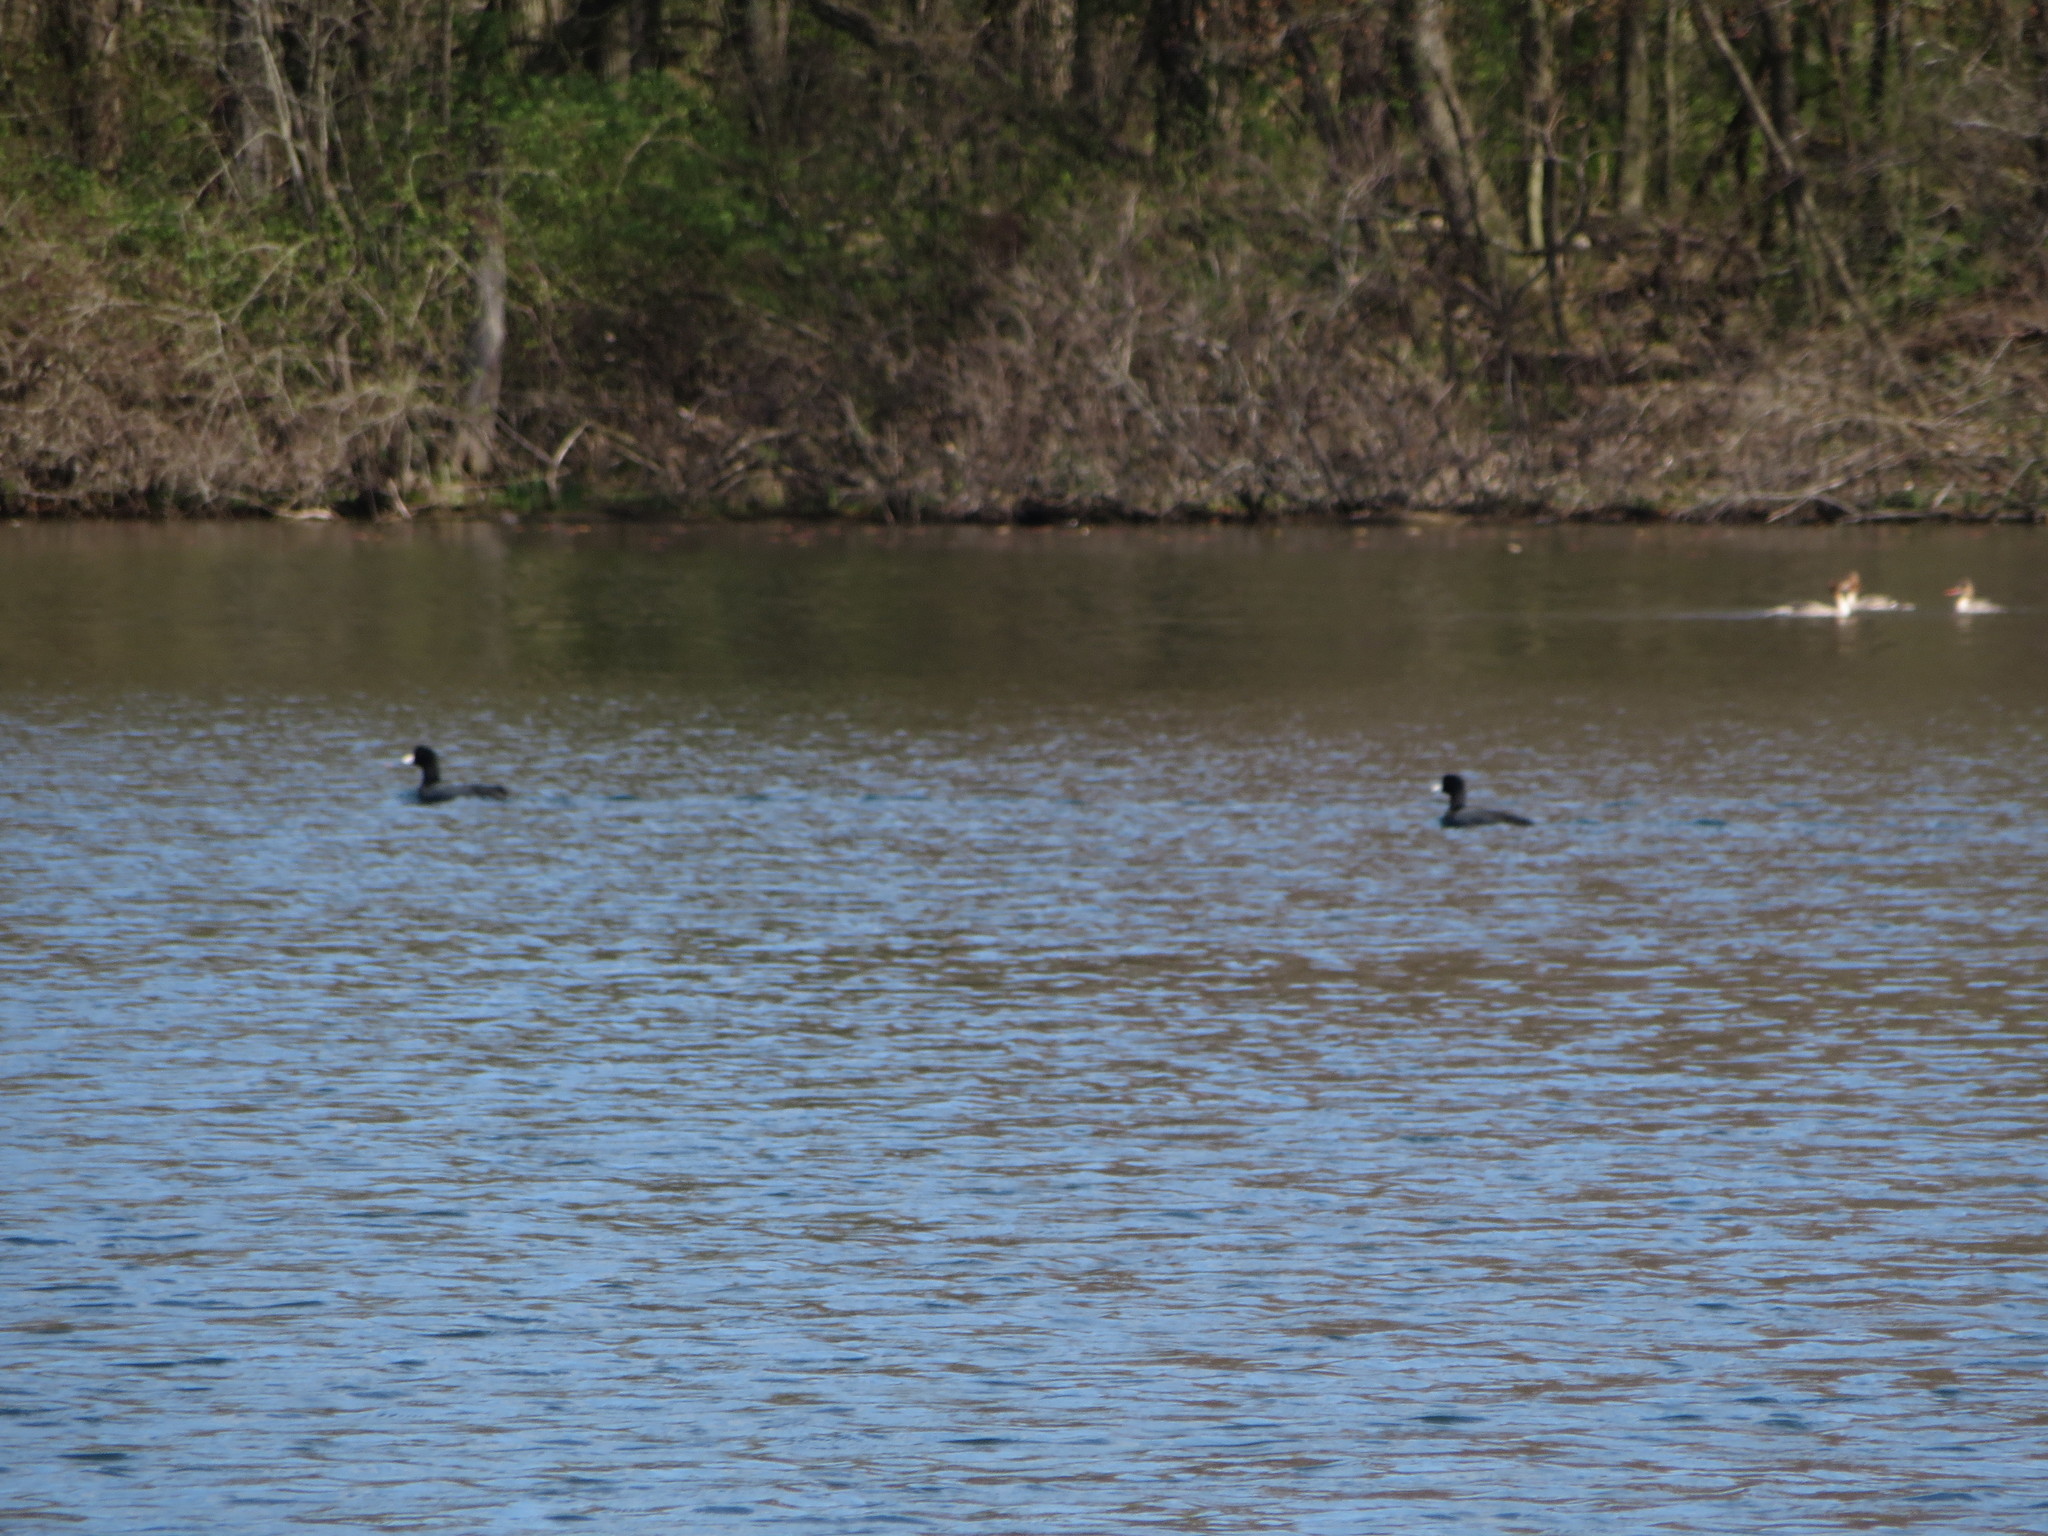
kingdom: Animalia
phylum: Chordata
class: Aves
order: Gruiformes
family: Rallidae
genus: Fulica
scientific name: Fulica americana
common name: American coot
